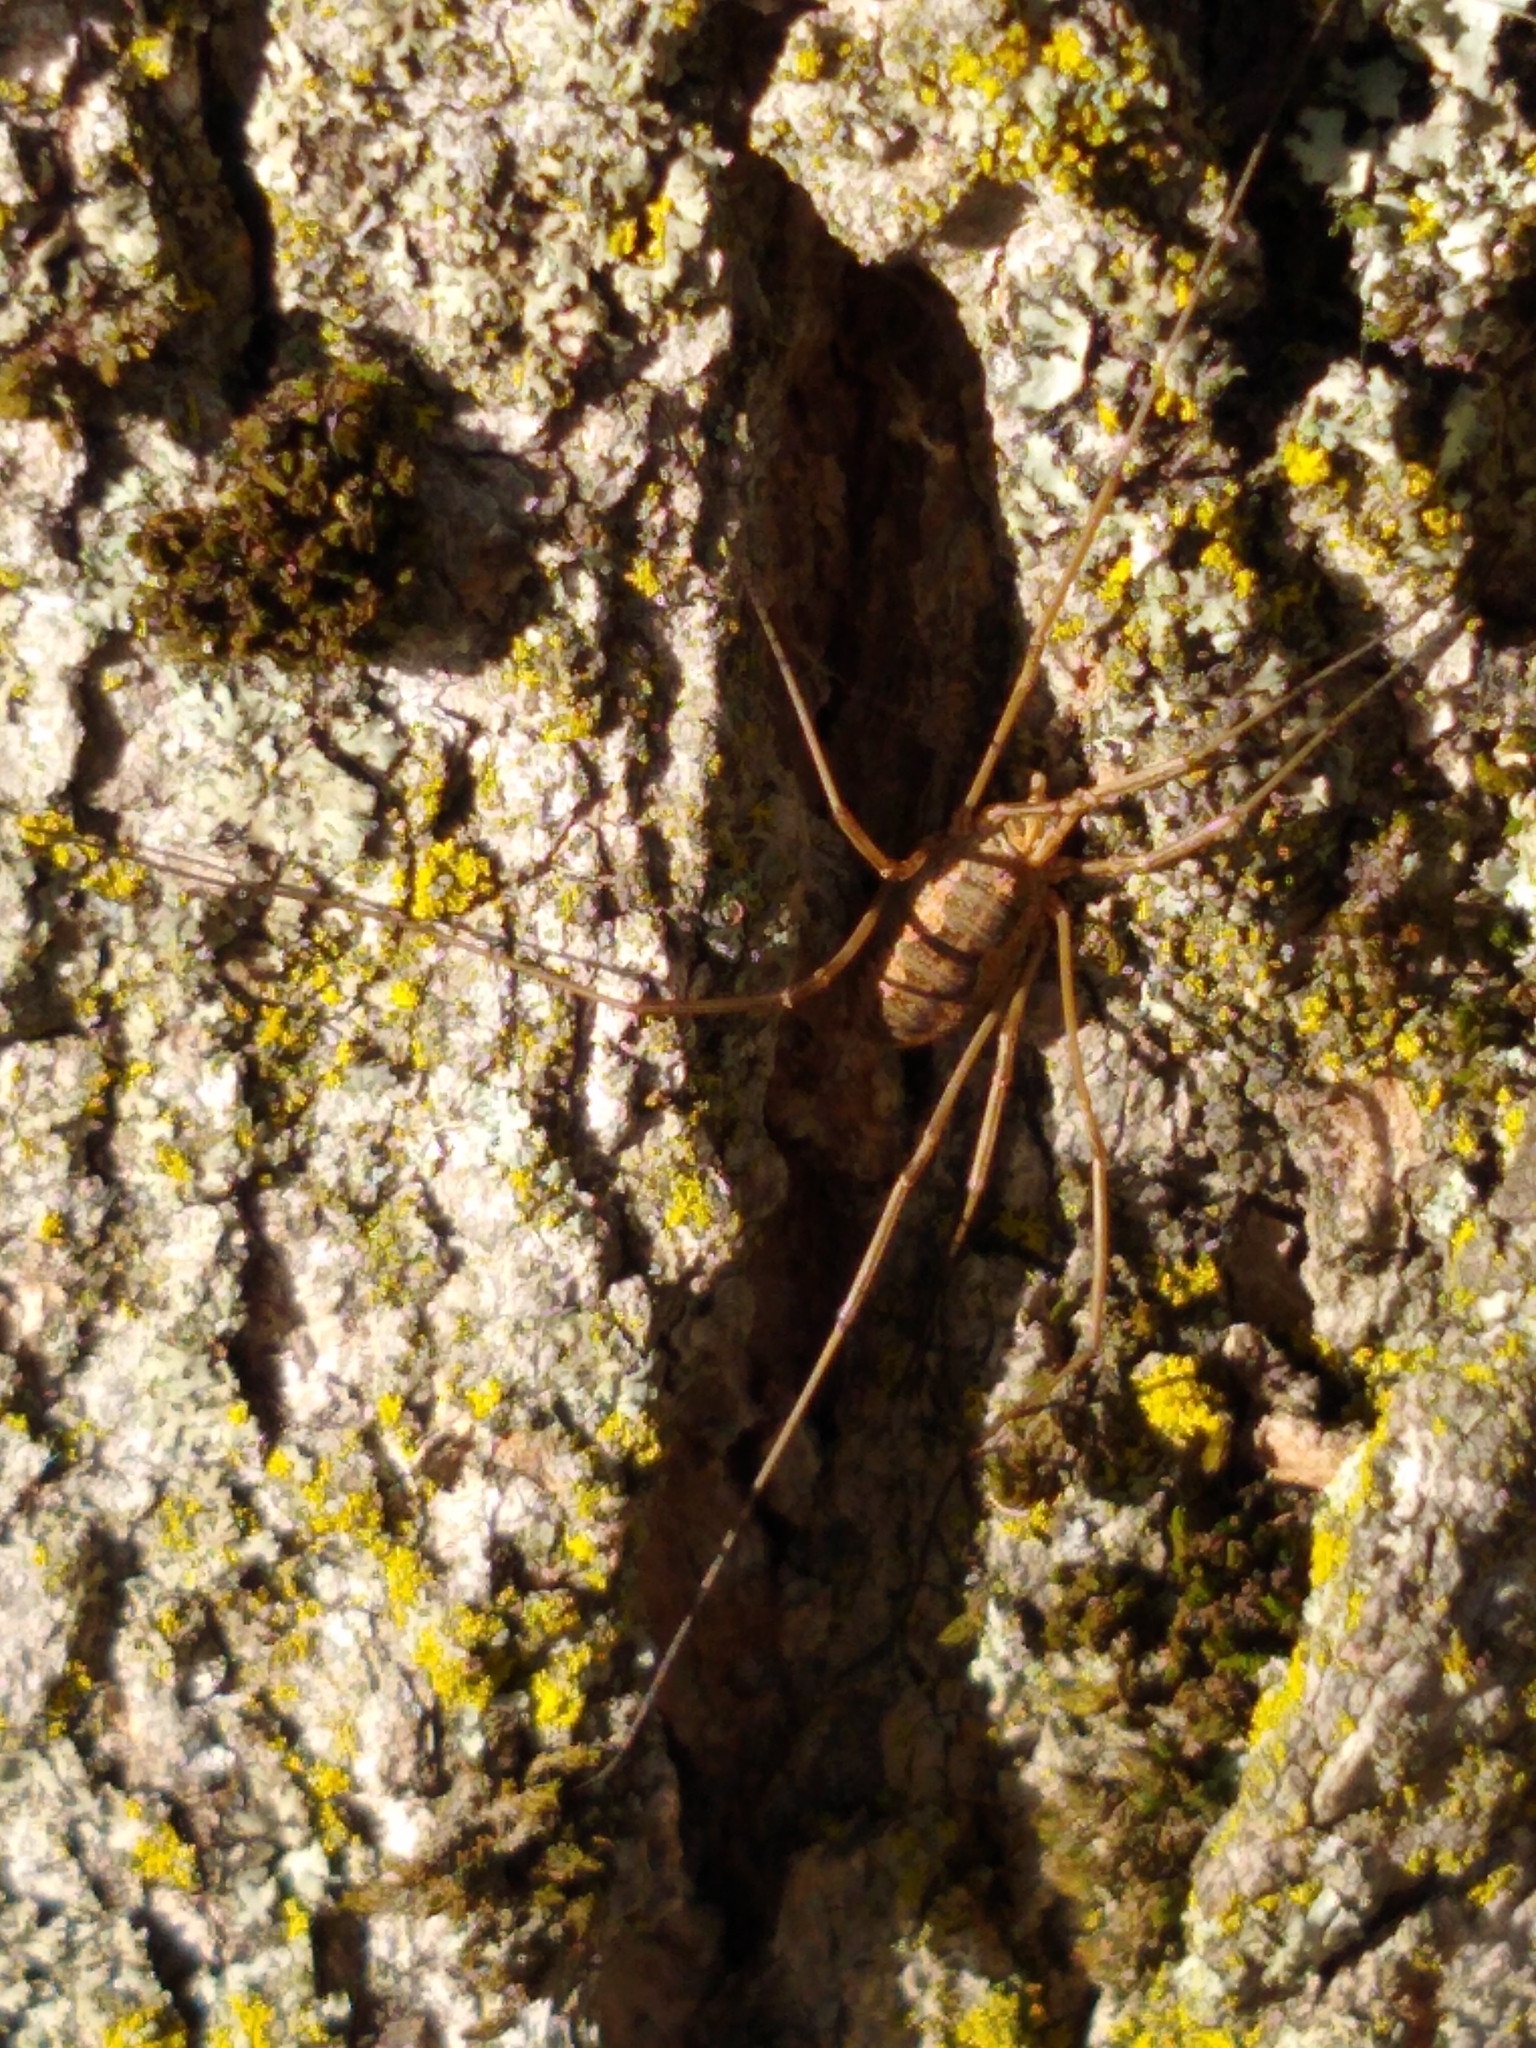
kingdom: Animalia
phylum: Arthropoda
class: Arachnida
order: Opiliones
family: Phalangiidae
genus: Phalangium
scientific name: Phalangium opilio
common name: Daddy longleg
